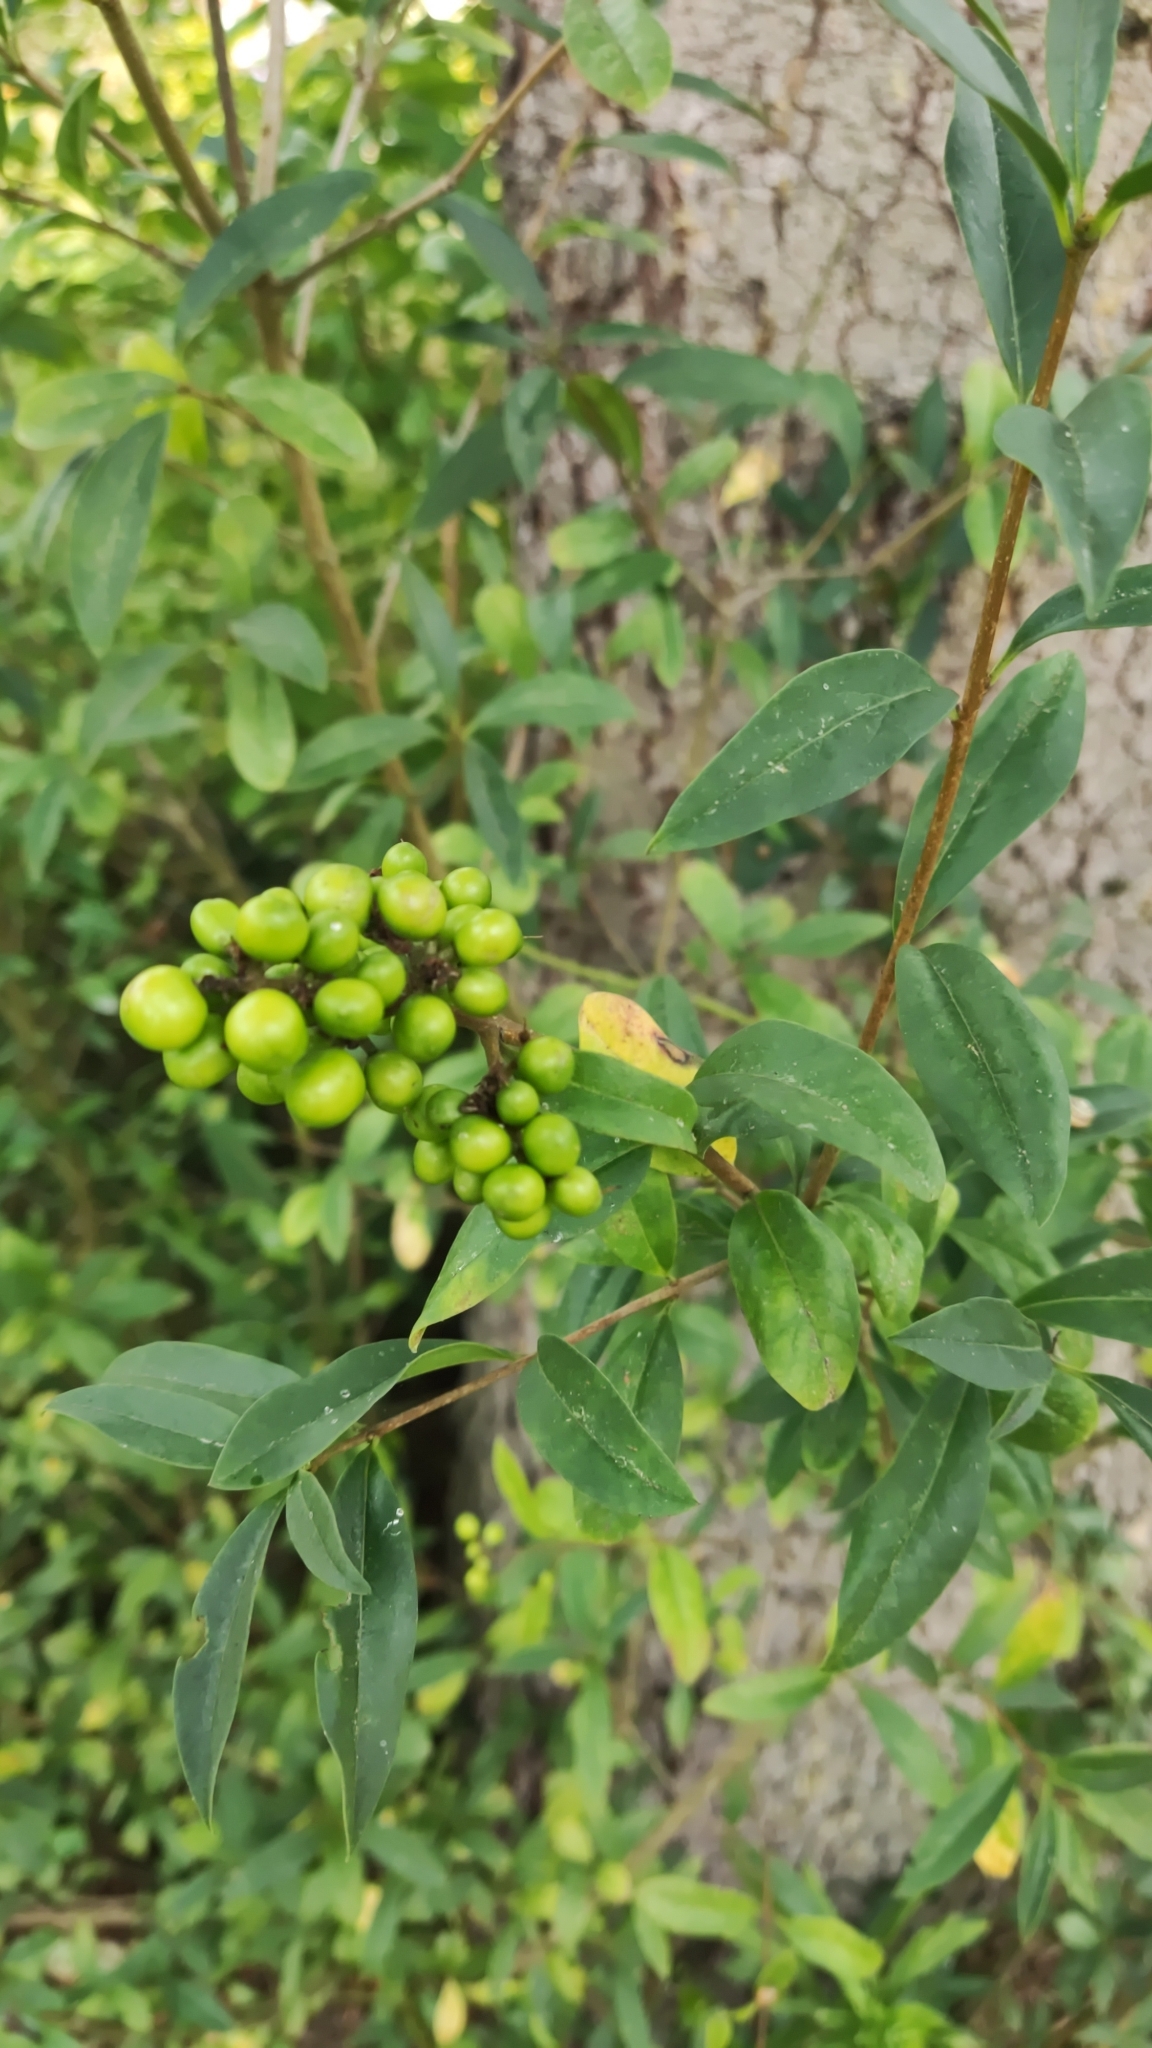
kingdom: Plantae
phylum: Tracheophyta
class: Magnoliopsida
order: Lamiales
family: Oleaceae
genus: Ligustrum
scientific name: Ligustrum vulgare
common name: Wild privet
